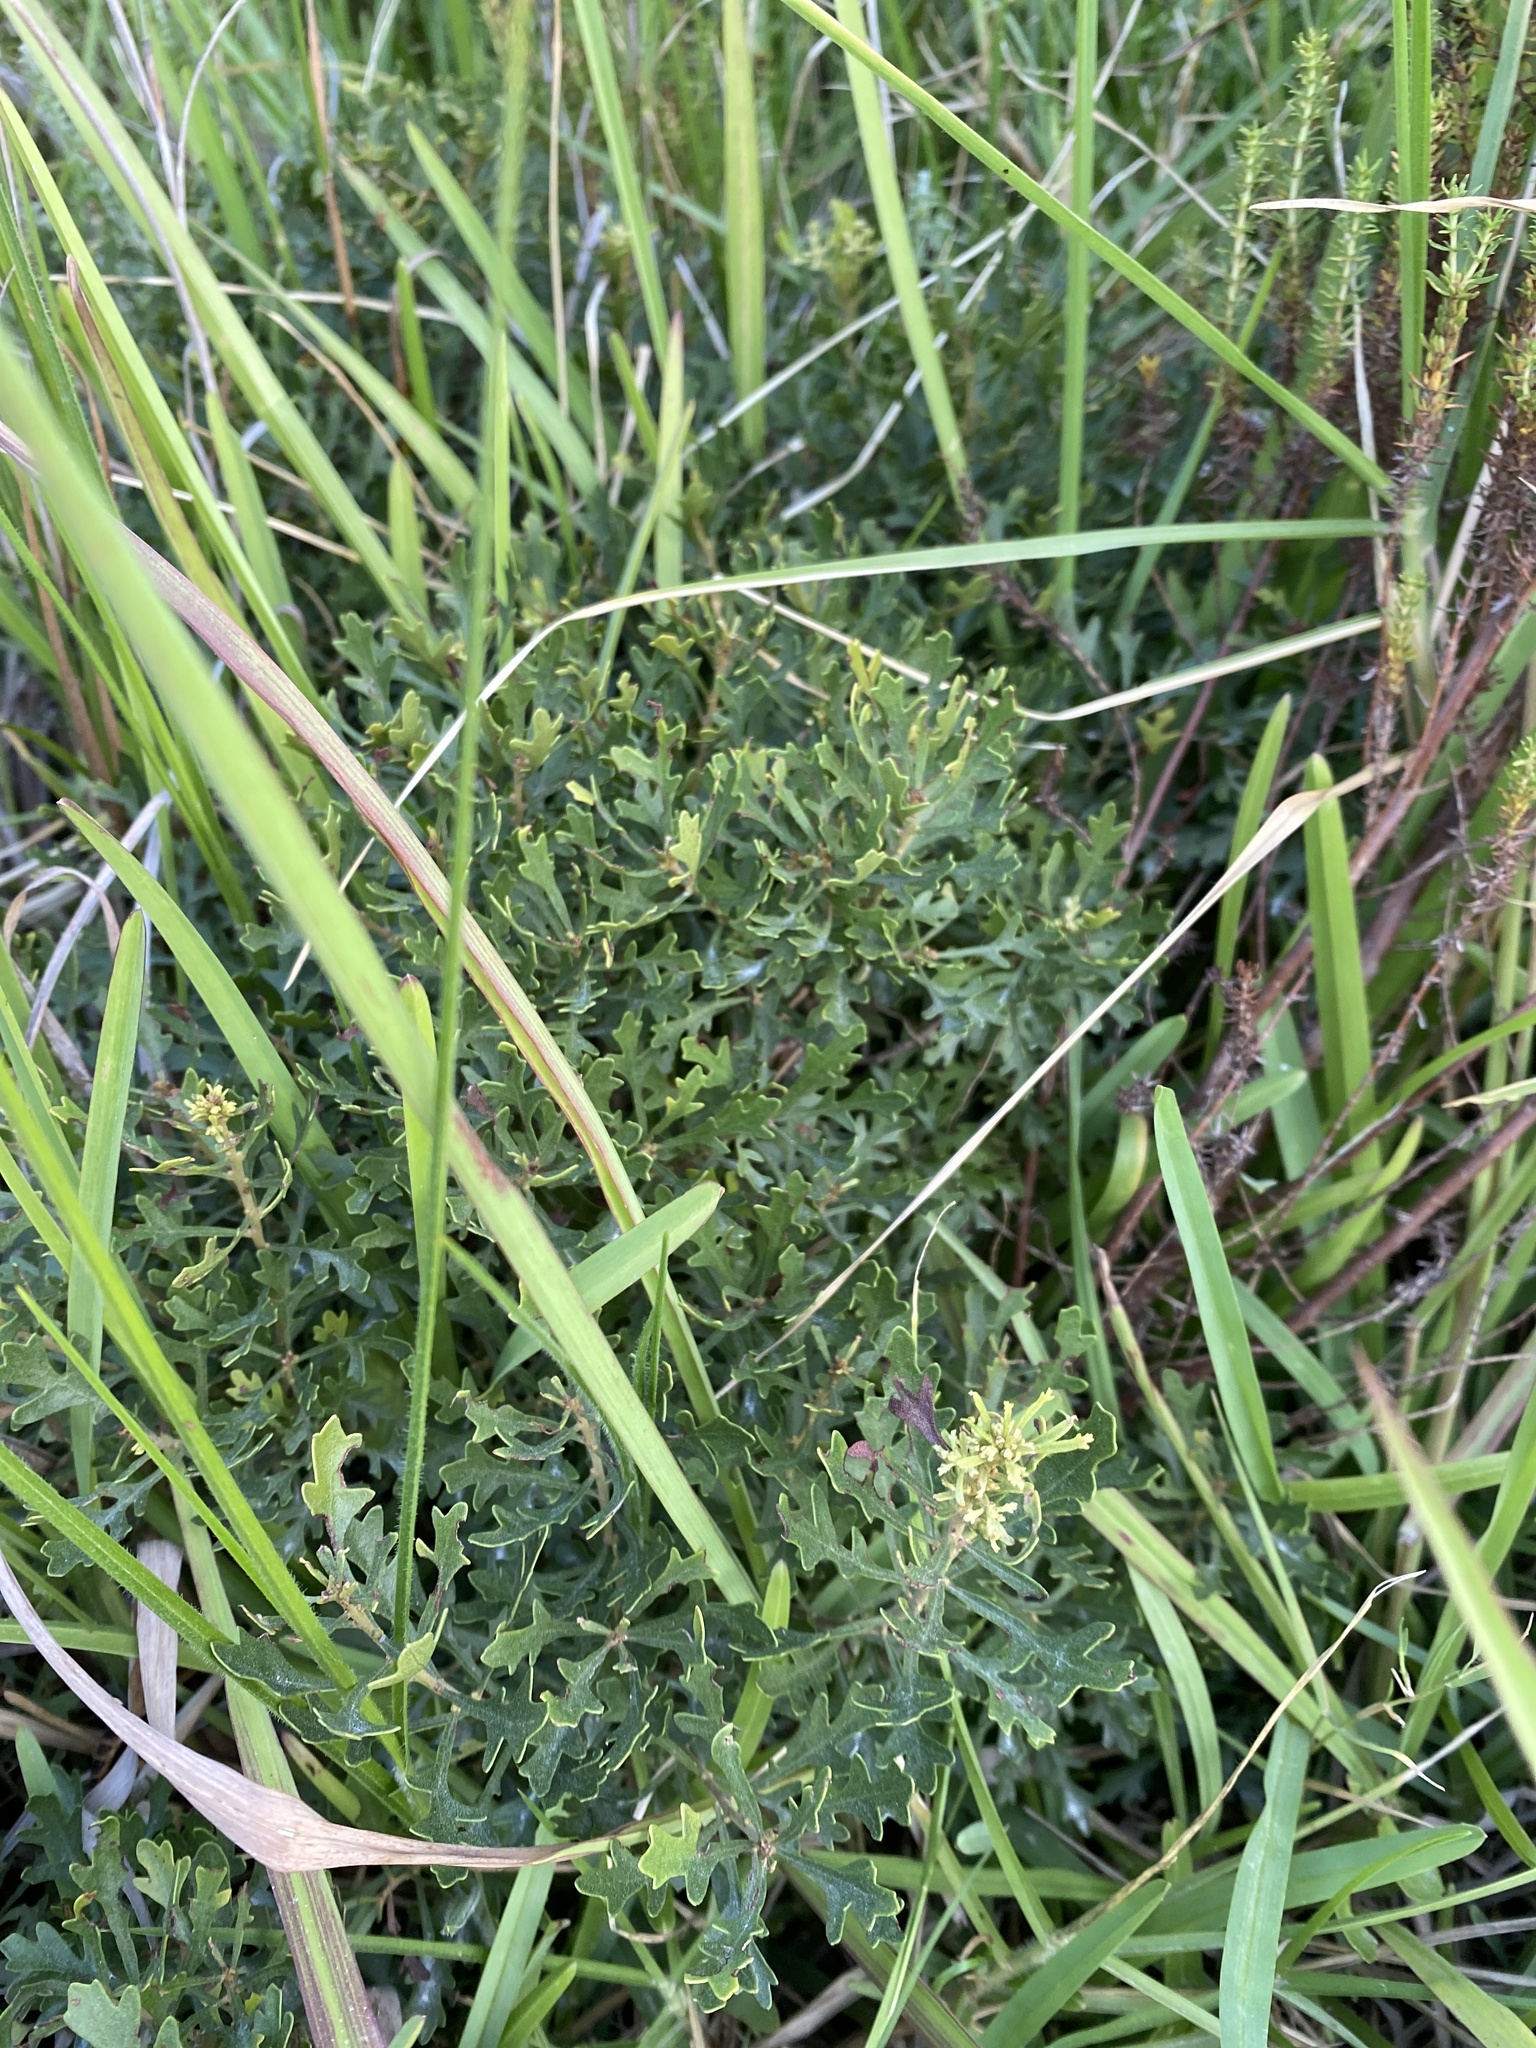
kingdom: Plantae
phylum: Tracheophyta
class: Magnoliopsida
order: Fagales
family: Myricaceae
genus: Morella
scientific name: Morella quercifolia
